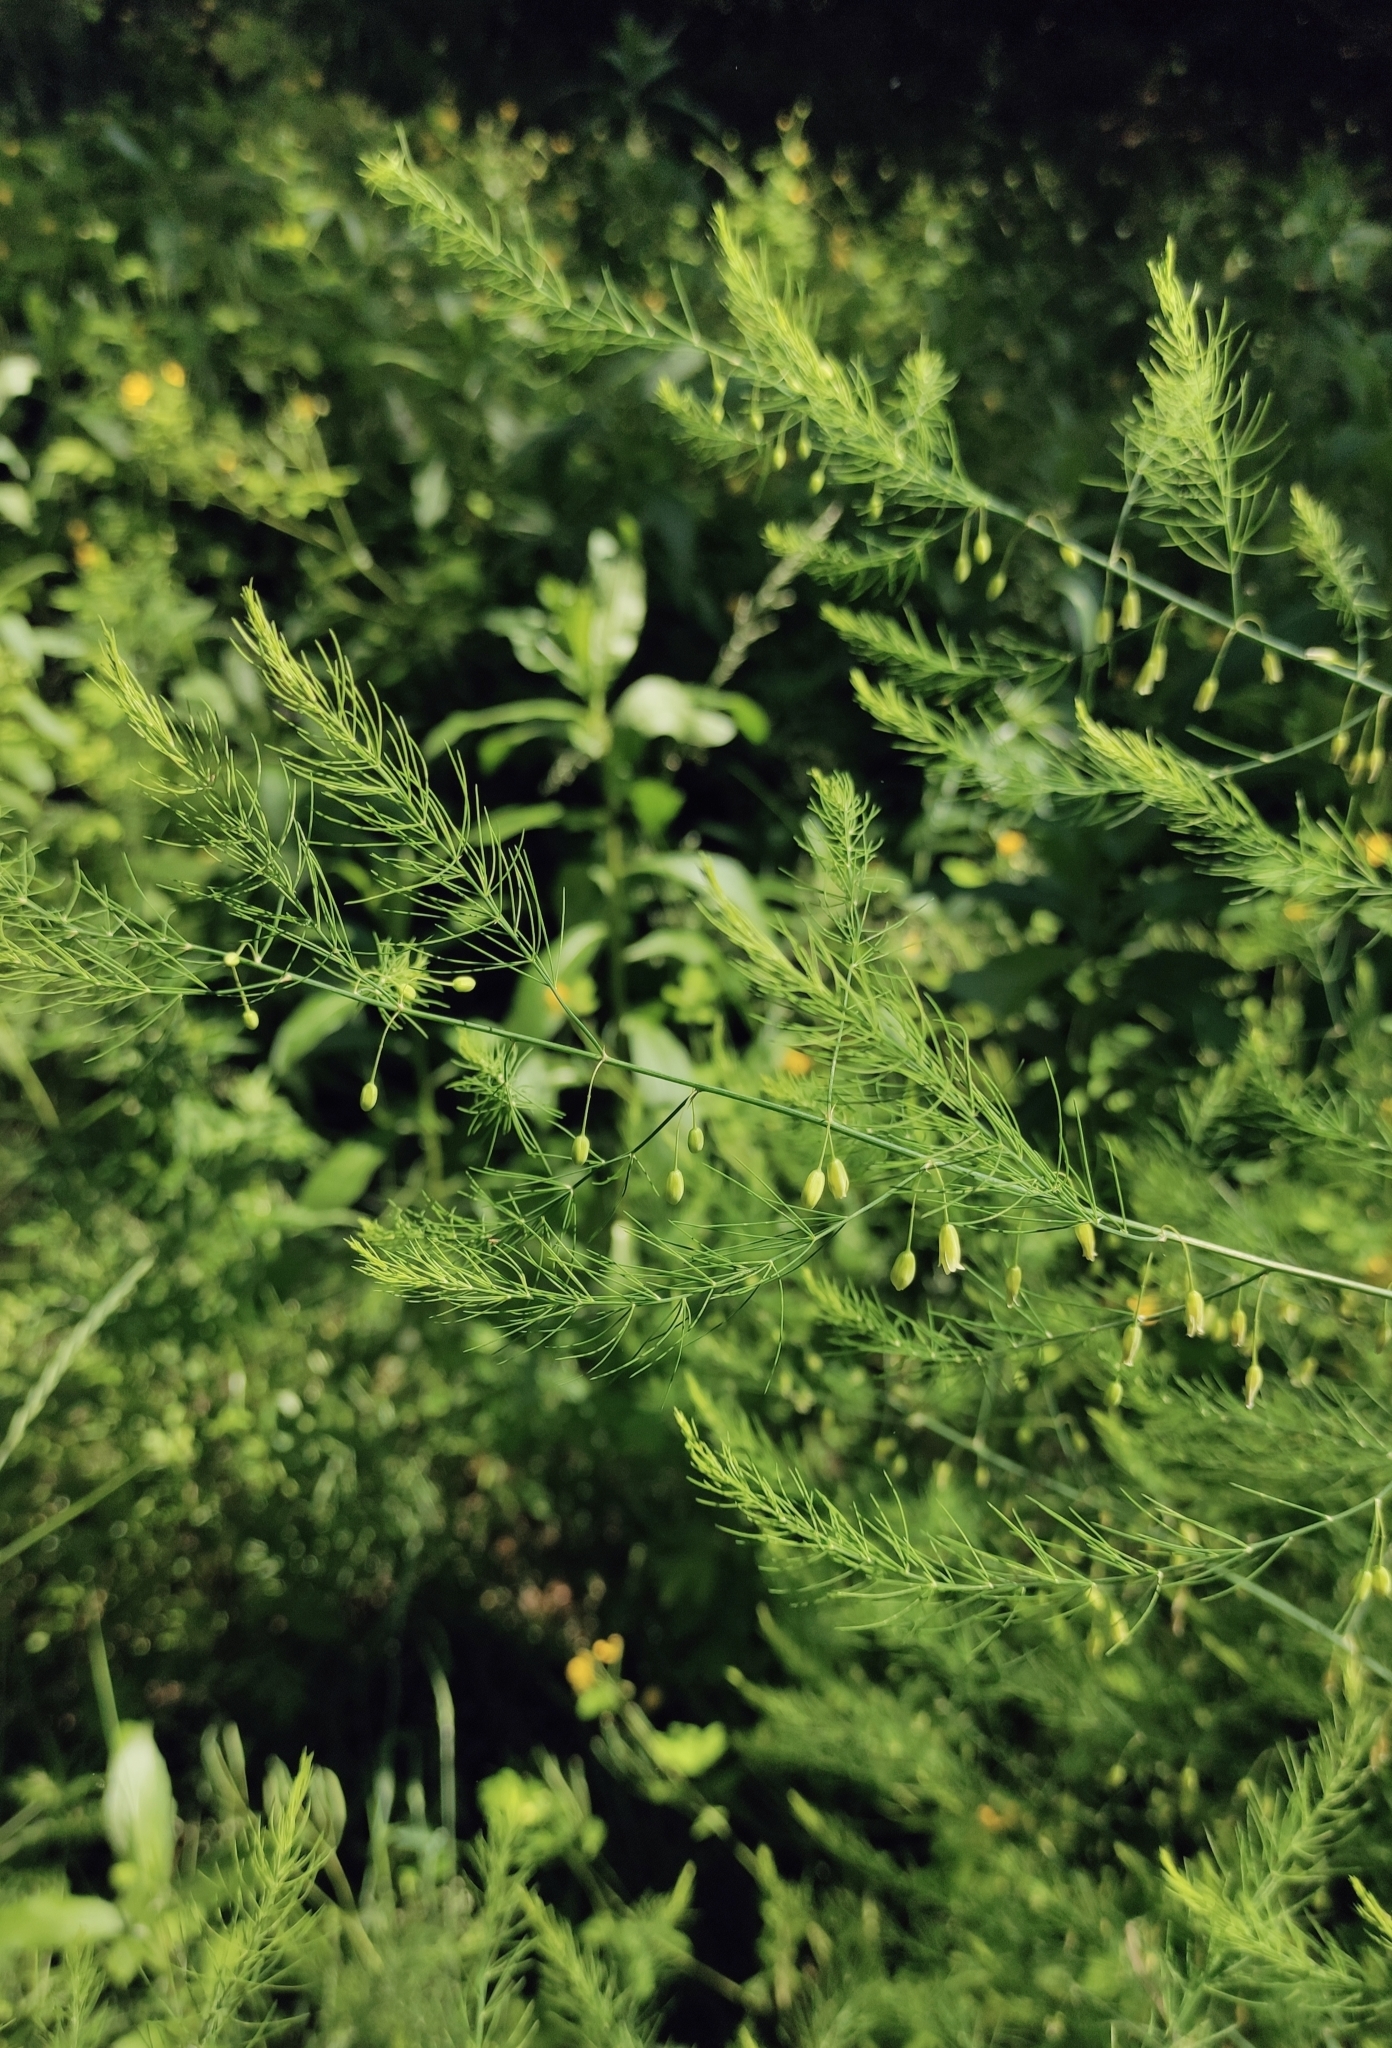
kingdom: Plantae
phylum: Tracheophyta
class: Liliopsida
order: Asparagales
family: Asparagaceae
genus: Asparagus
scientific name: Asparagus officinalis
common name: Garden asparagus
